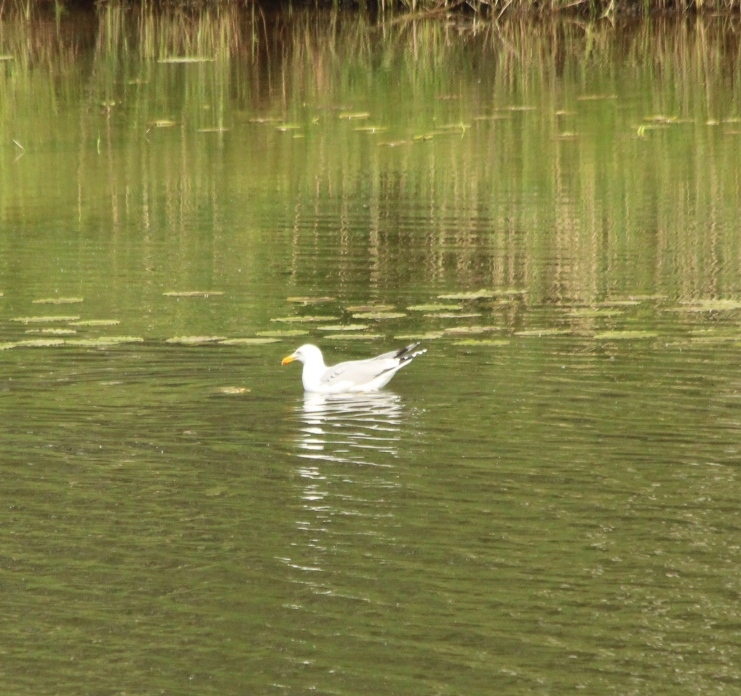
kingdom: Animalia
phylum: Chordata
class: Aves
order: Charadriiformes
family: Laridae
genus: Larus
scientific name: Larus argentatus
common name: Herring gull
